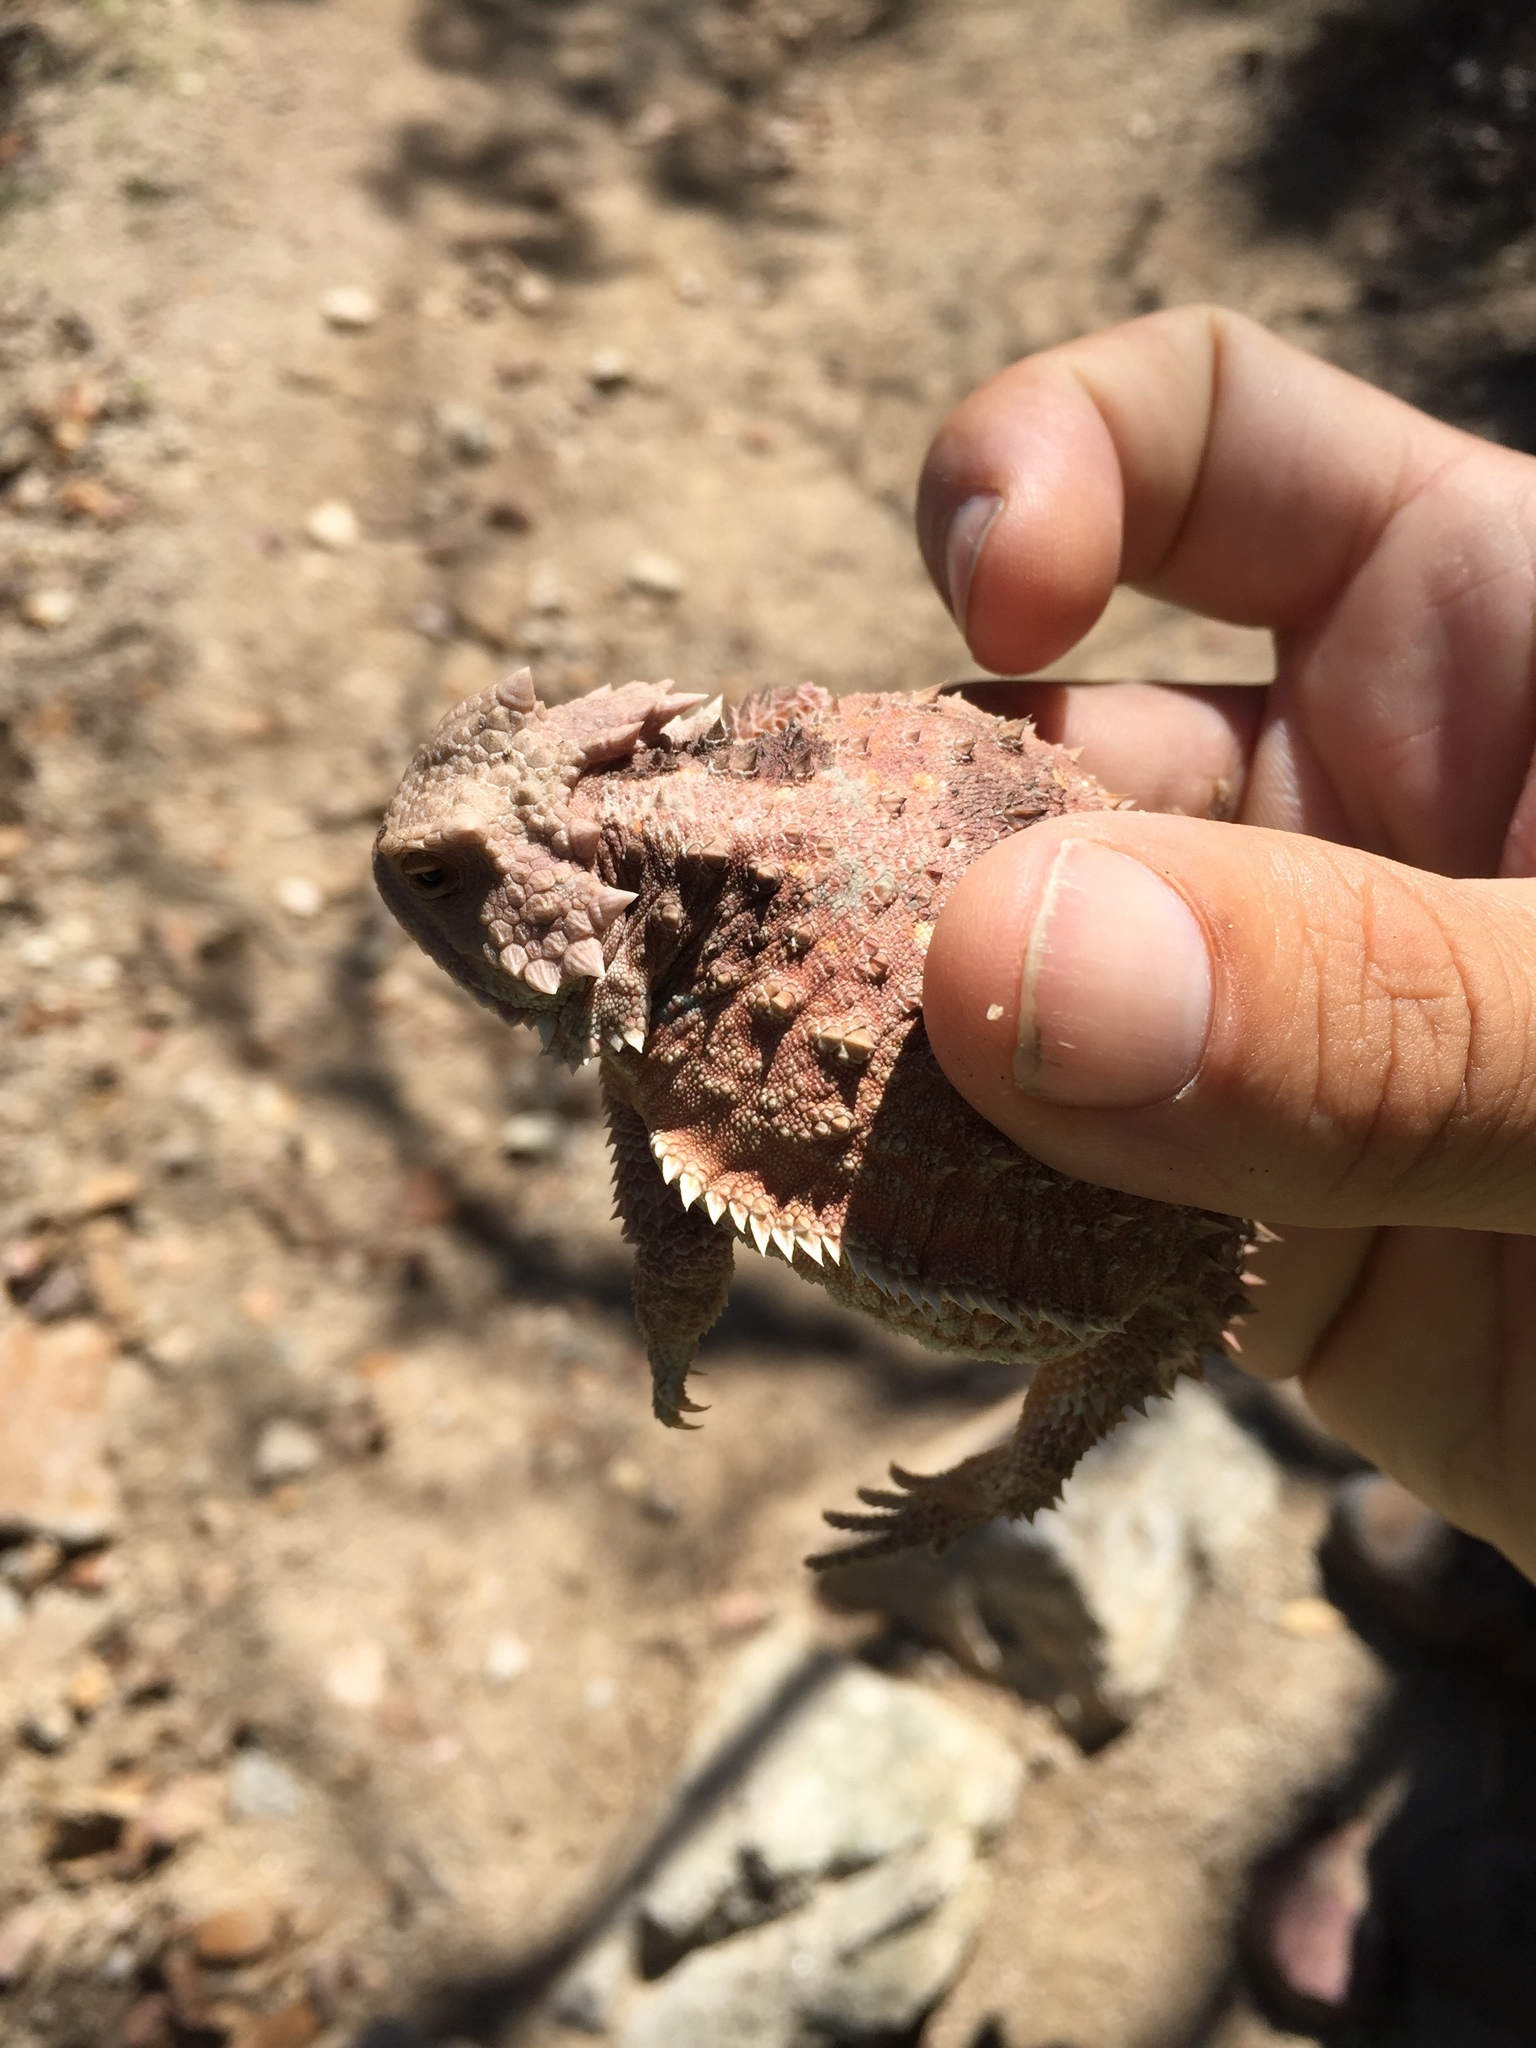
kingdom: Animalia
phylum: Chordata
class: Squamata
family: Phrynosomatidae
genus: Phrynosoma
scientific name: Phrynosoma hernandesi
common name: Greater short-horned lizard
